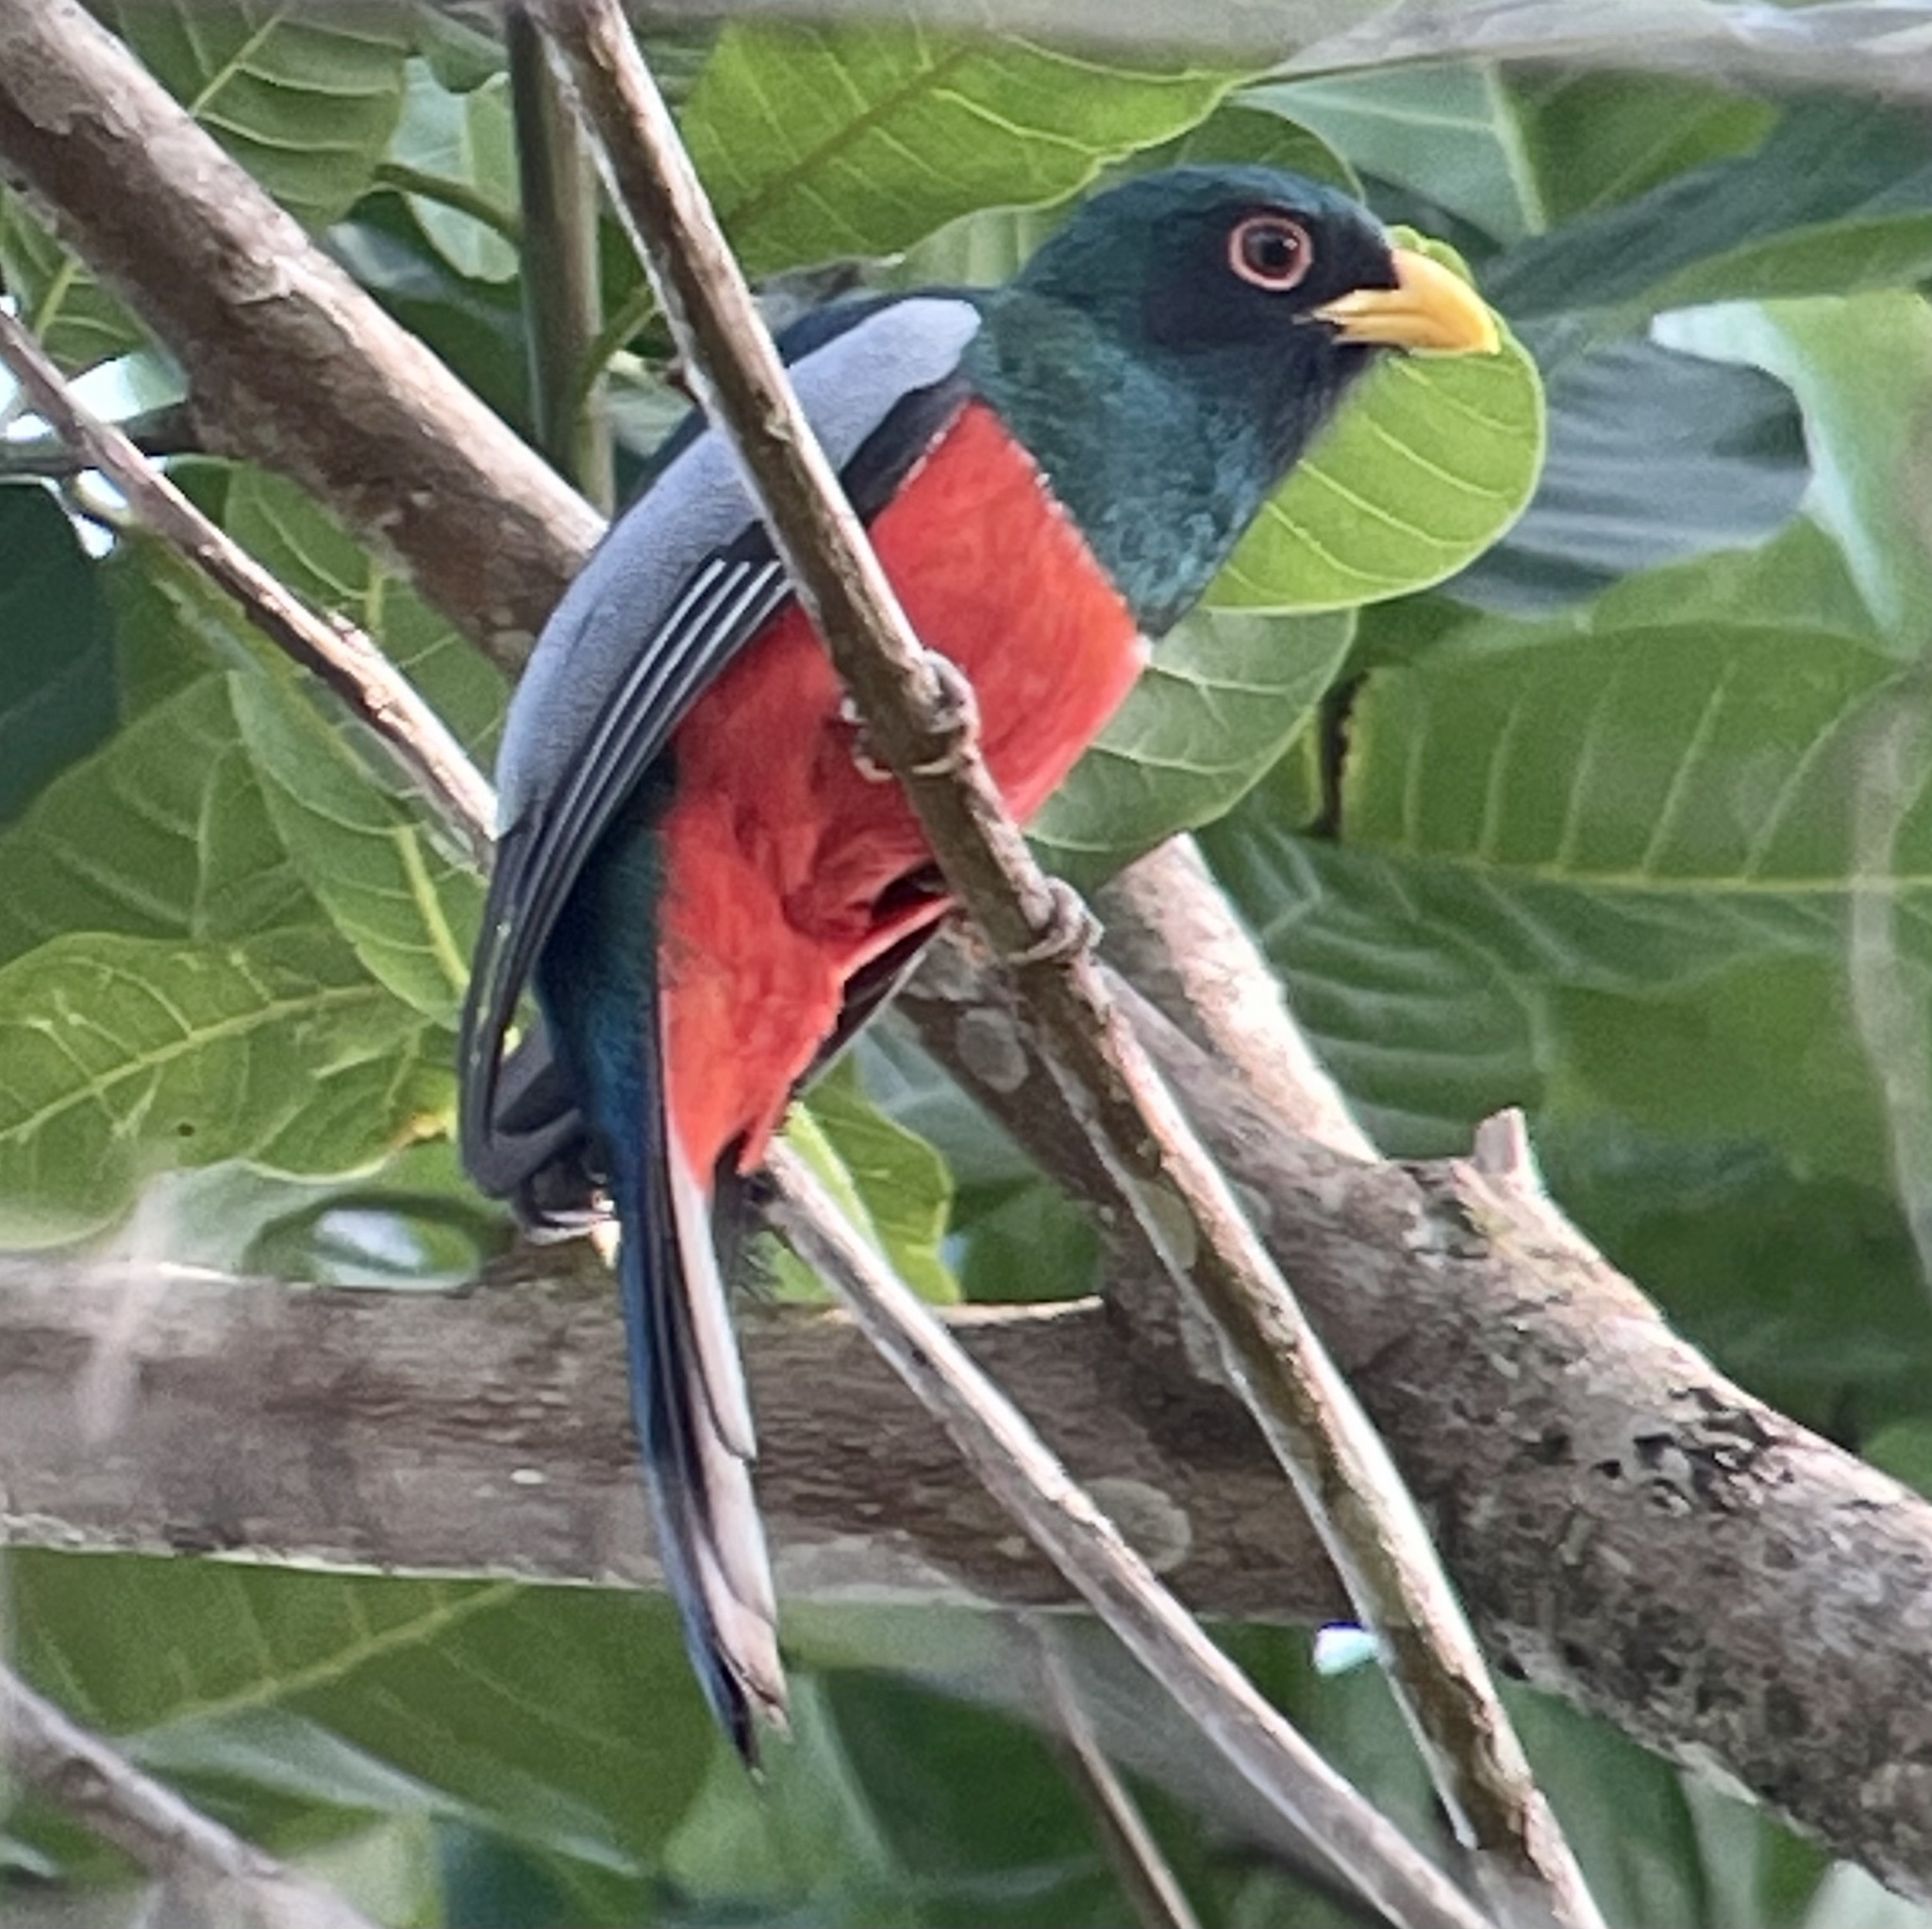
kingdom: Animalia
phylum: Chordata
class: Aves
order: Trogoniformes
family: Trogonidae
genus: Trogon
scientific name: Trogon melanurus
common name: Black-tailed trogon
